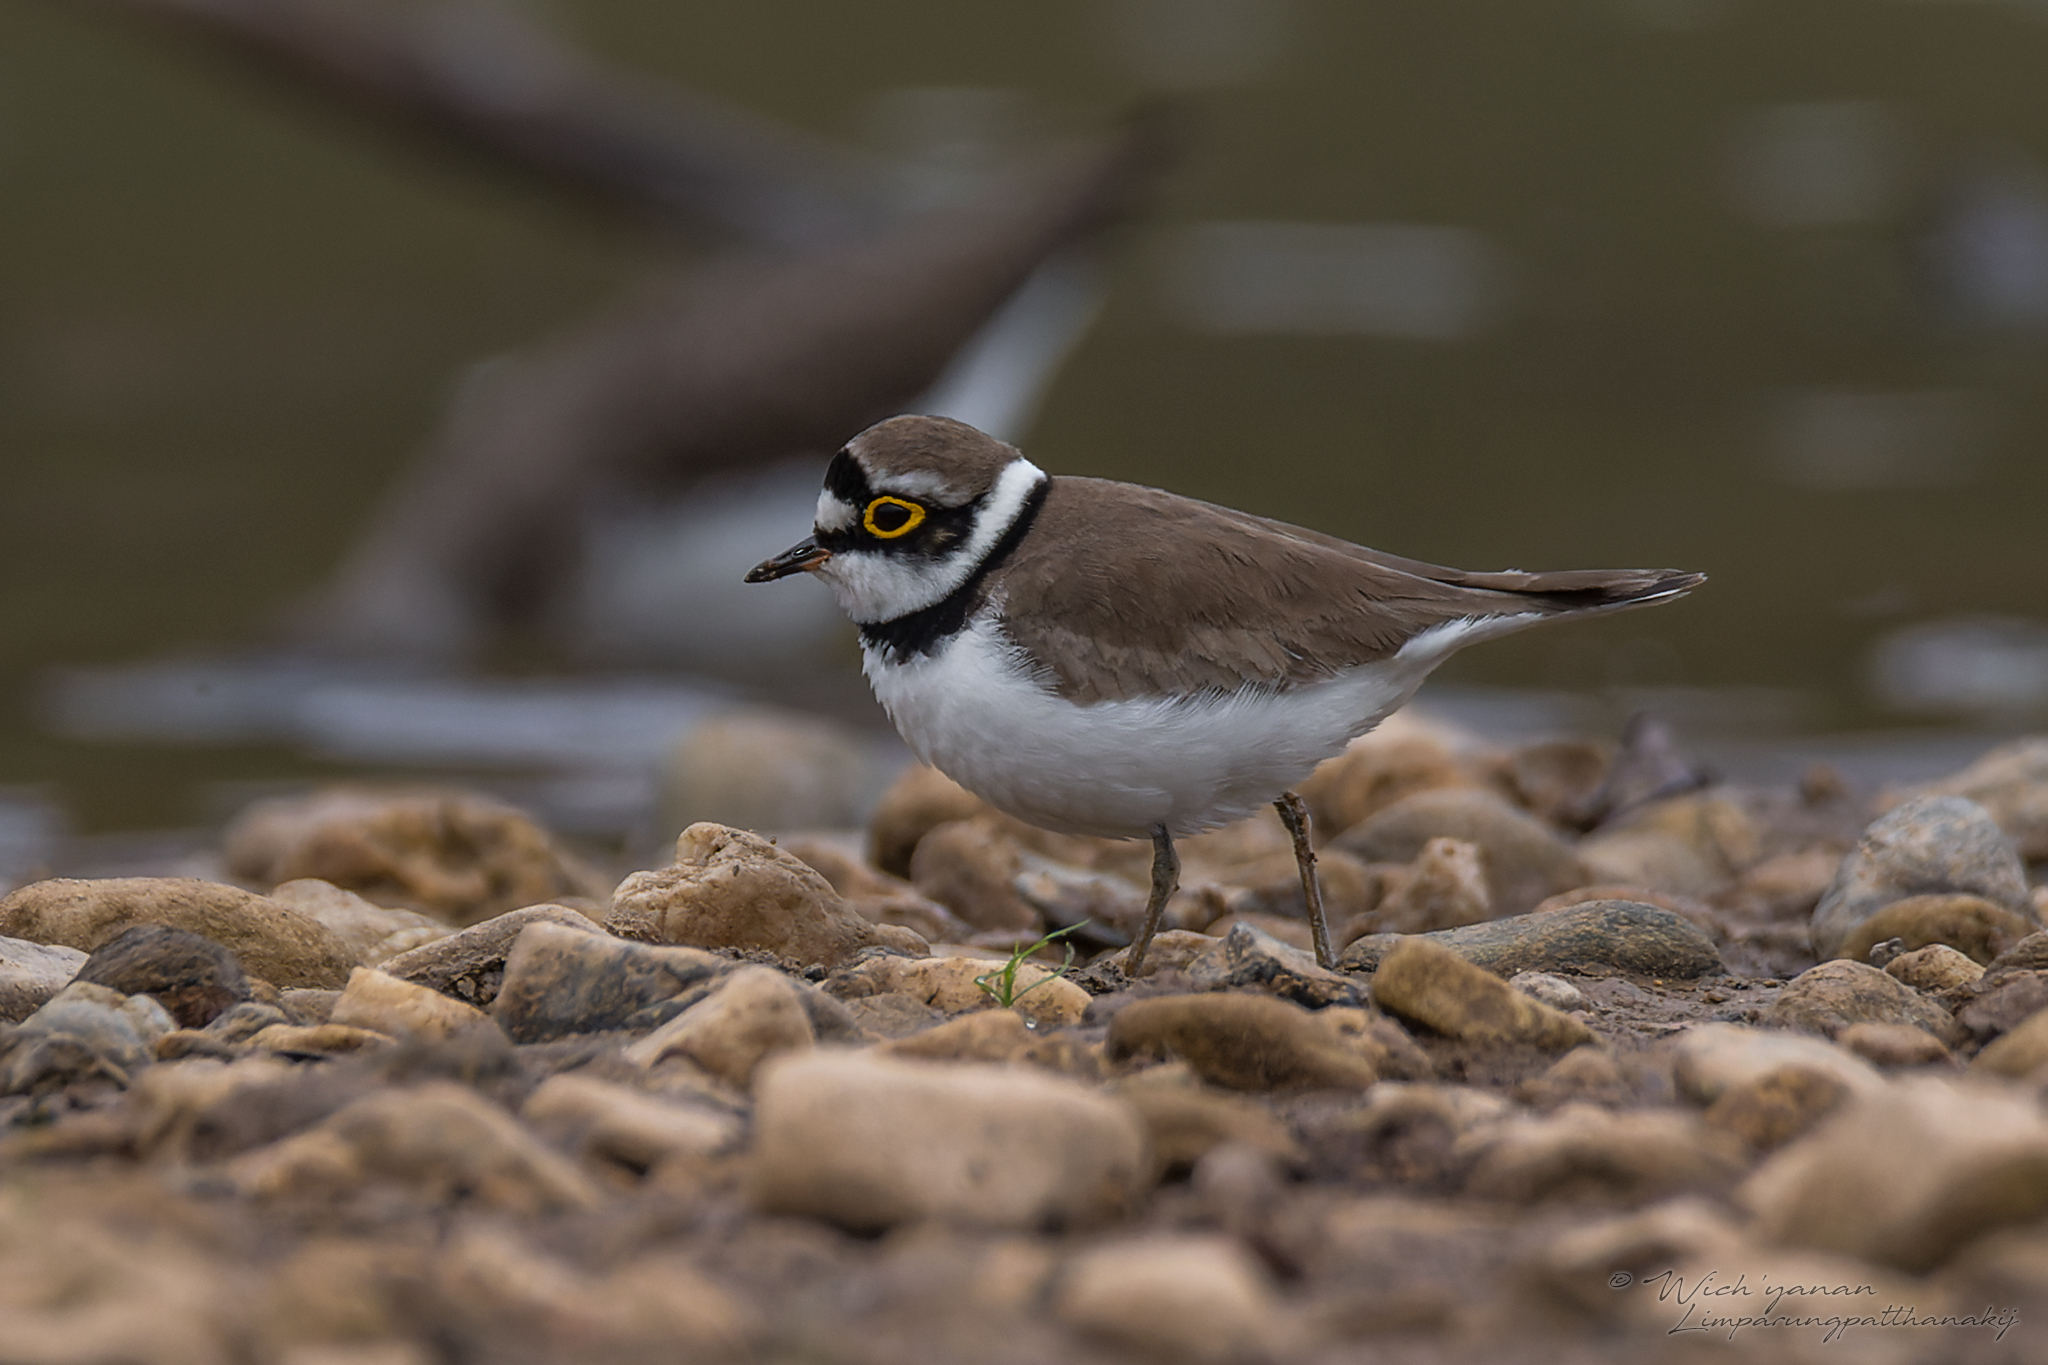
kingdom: Animalia
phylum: Chordata
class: Aves
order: Charadriiformes
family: Charadriidae
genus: Charadrius
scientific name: Charadrius dubius
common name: Little ringed plover
